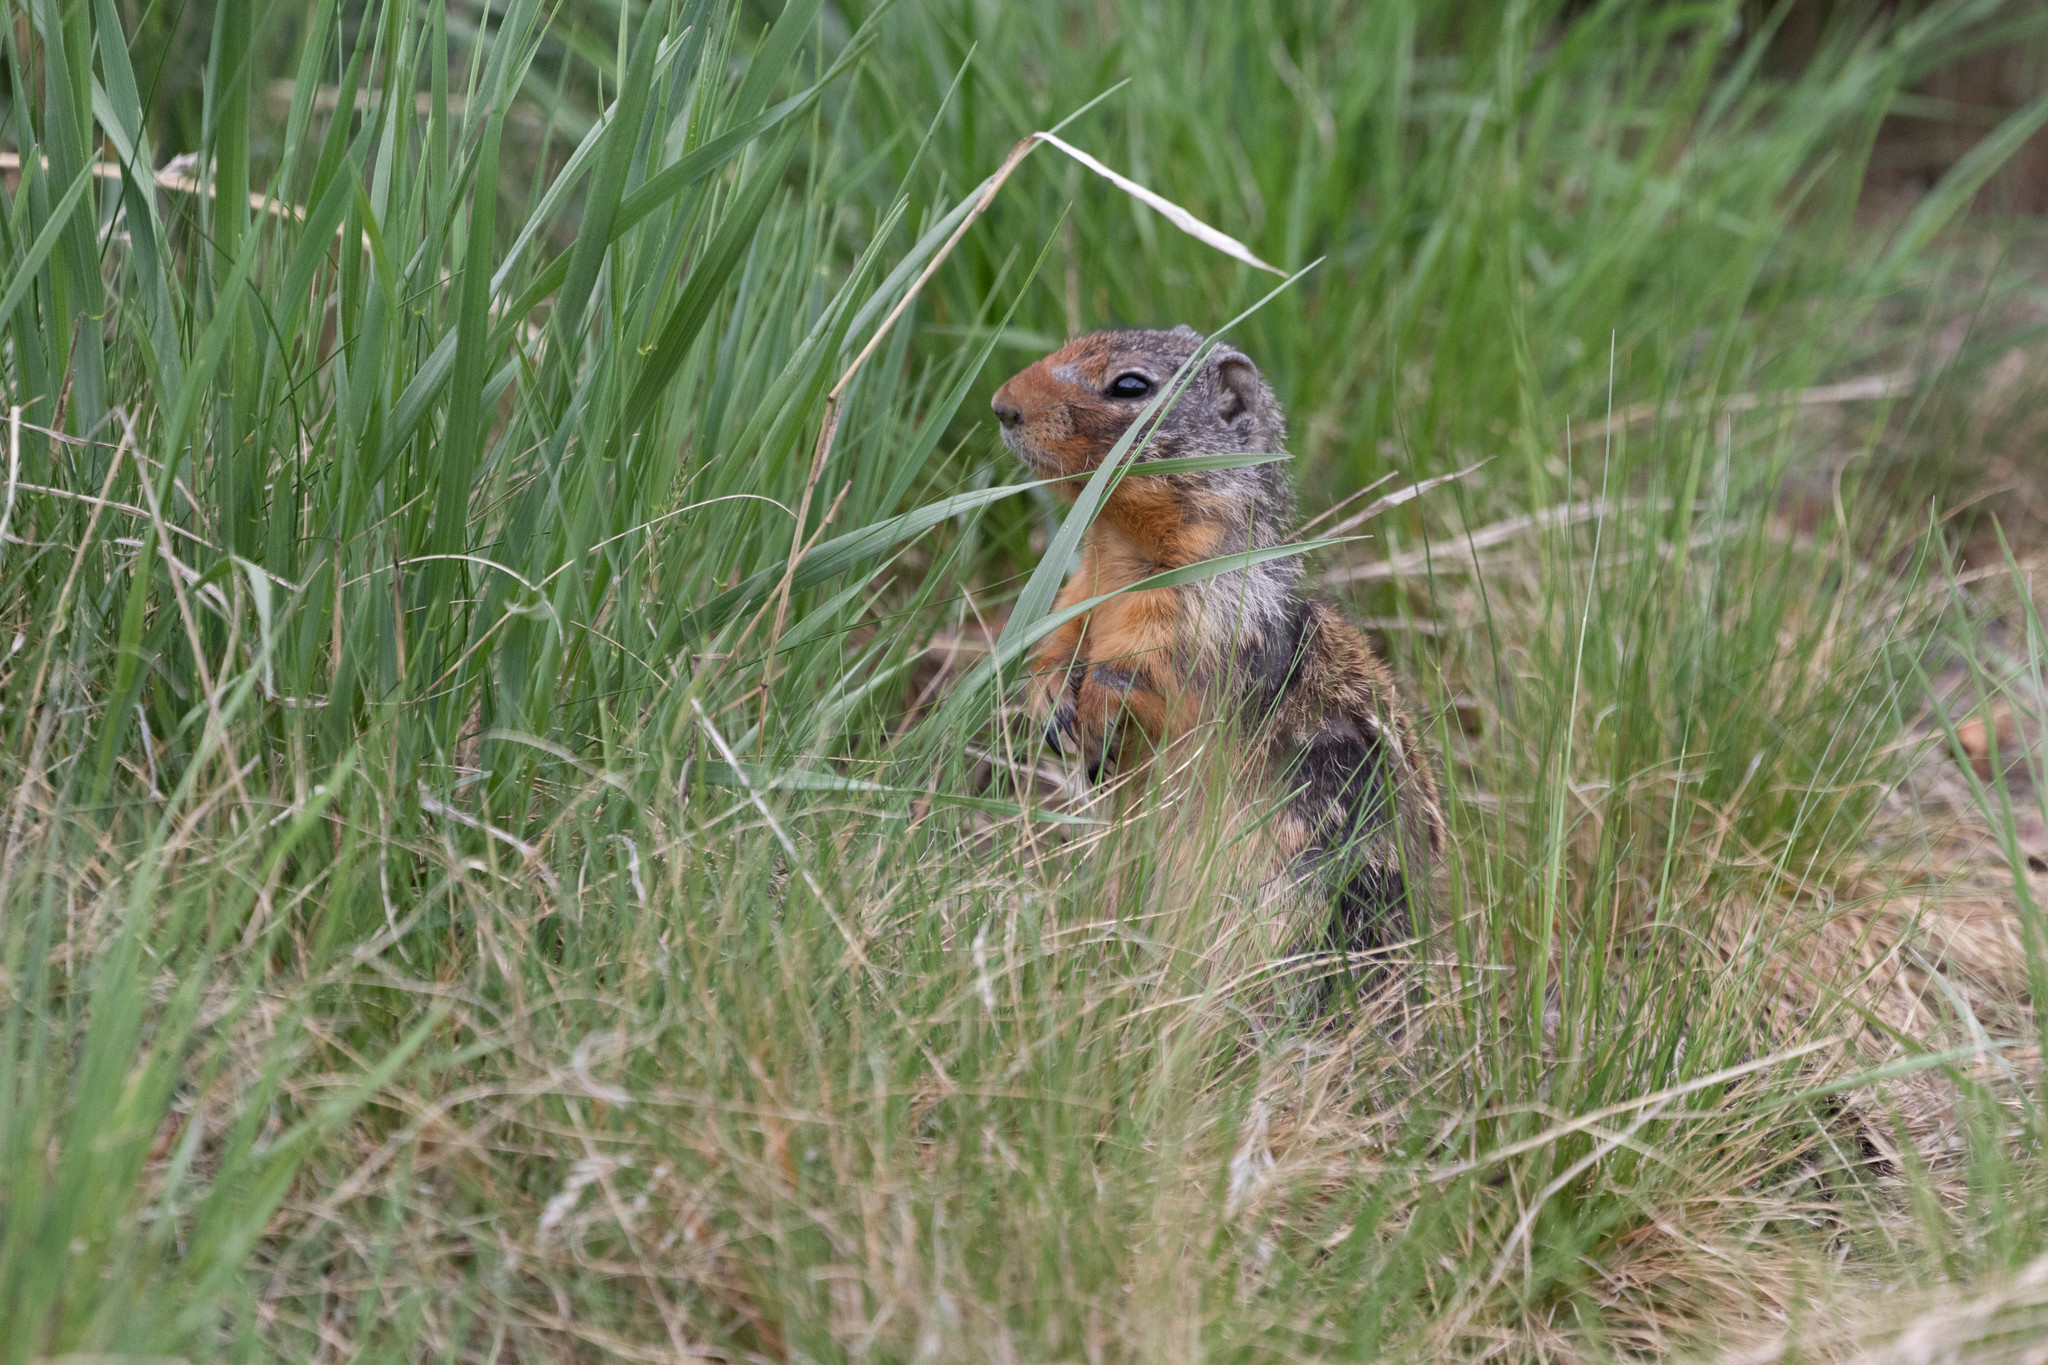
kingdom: Animalia
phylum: Chordata
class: Mammalia
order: Rodentia
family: Sciuridae
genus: Urocitellus
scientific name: Urocitellus columbianus
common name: Columbian ground squirrel
